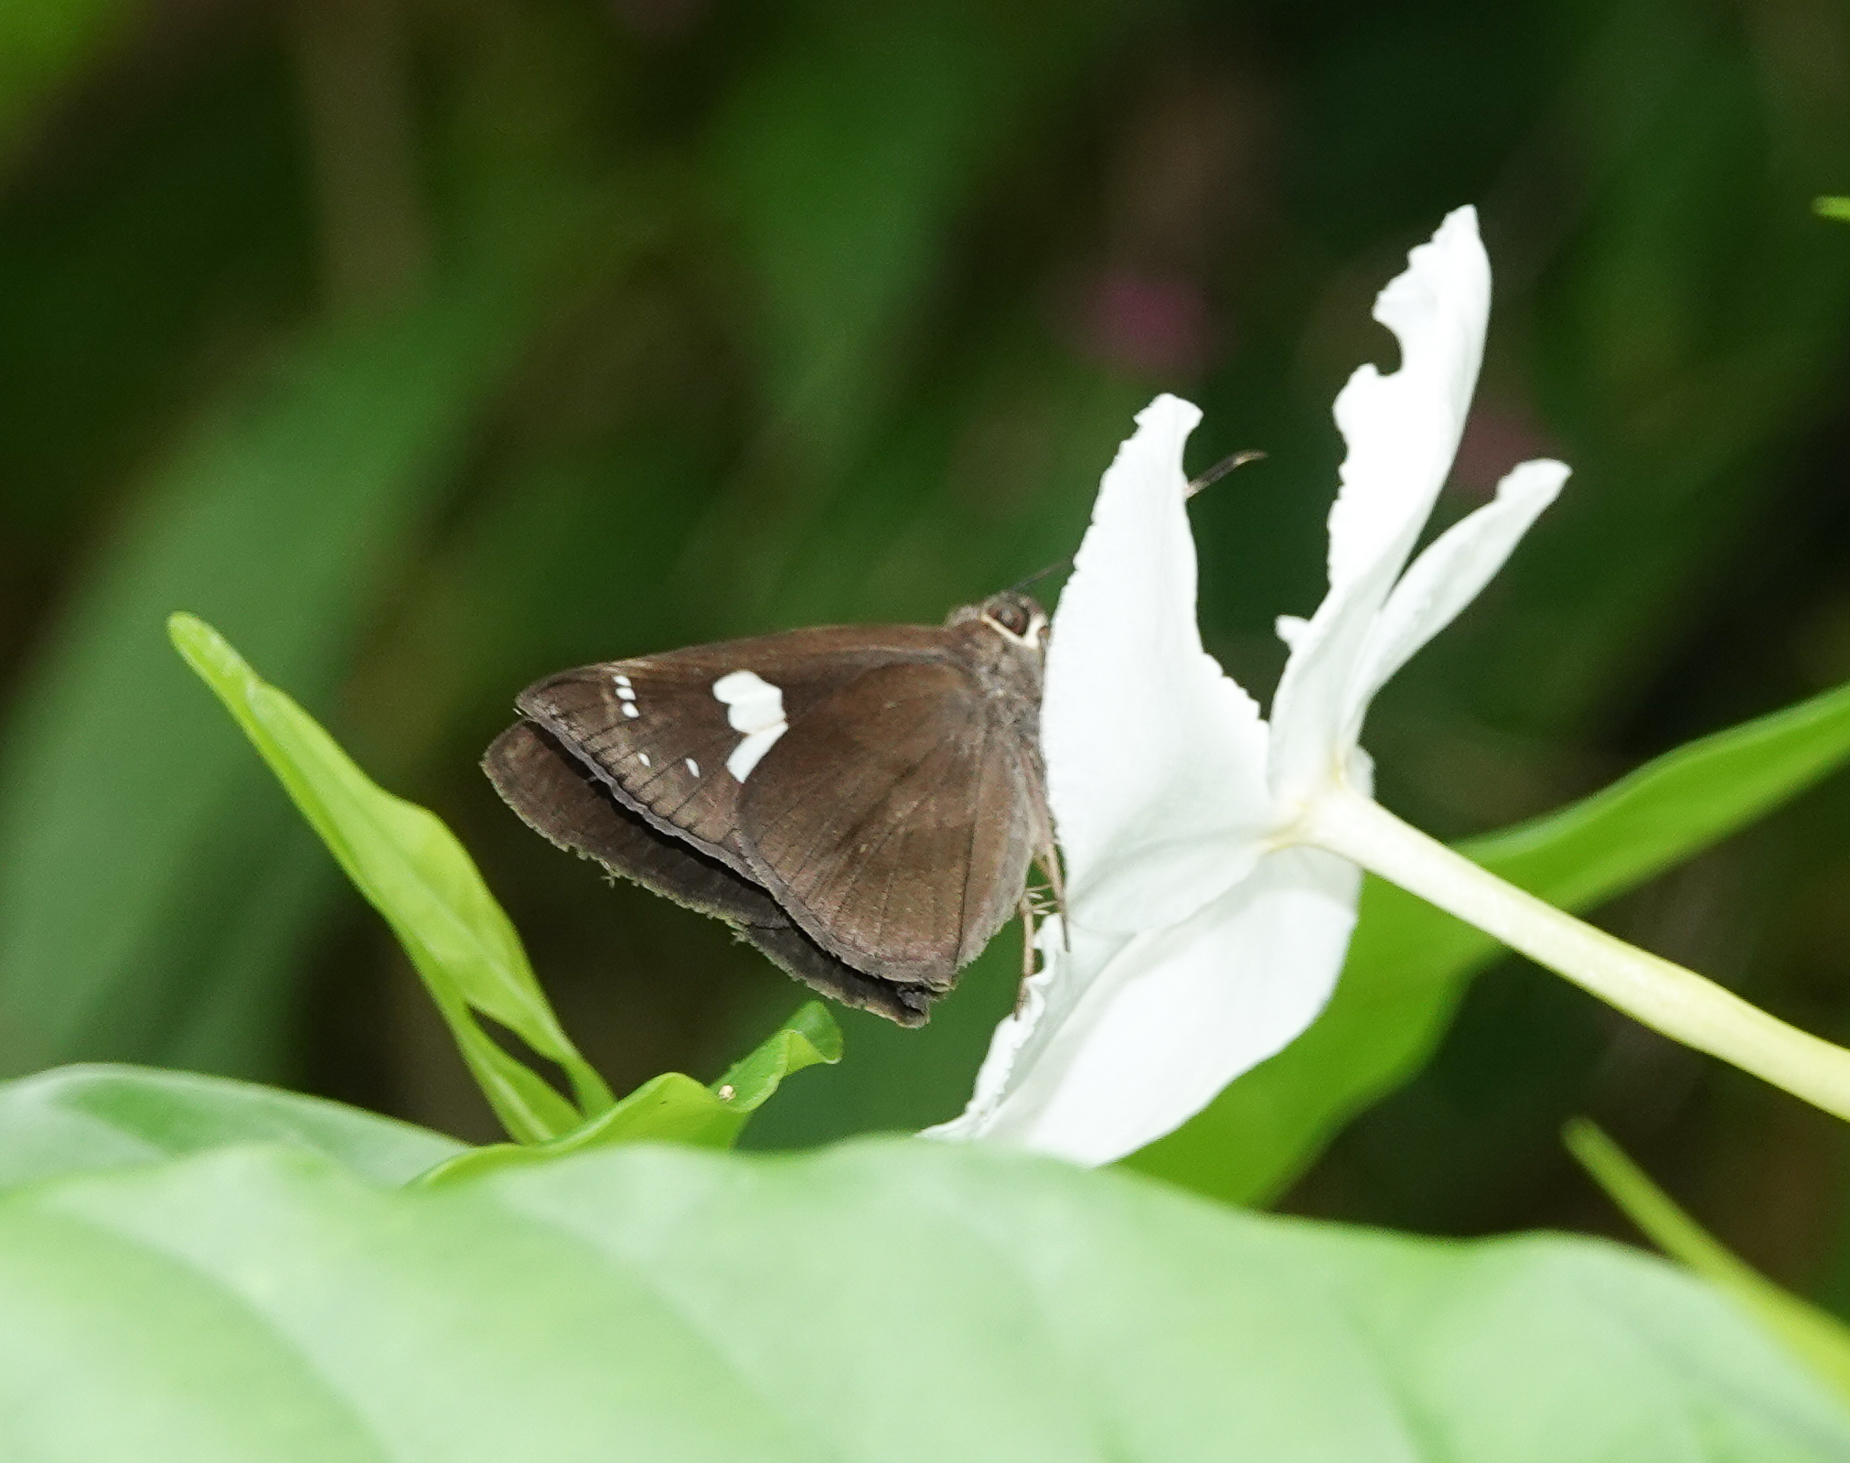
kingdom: Animalia
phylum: Arthropoda
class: Insecta
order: Lepidoptera
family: Hesperiidae
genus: Notocrypta
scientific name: Notocrypta feisthamelii
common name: Spotted demon
